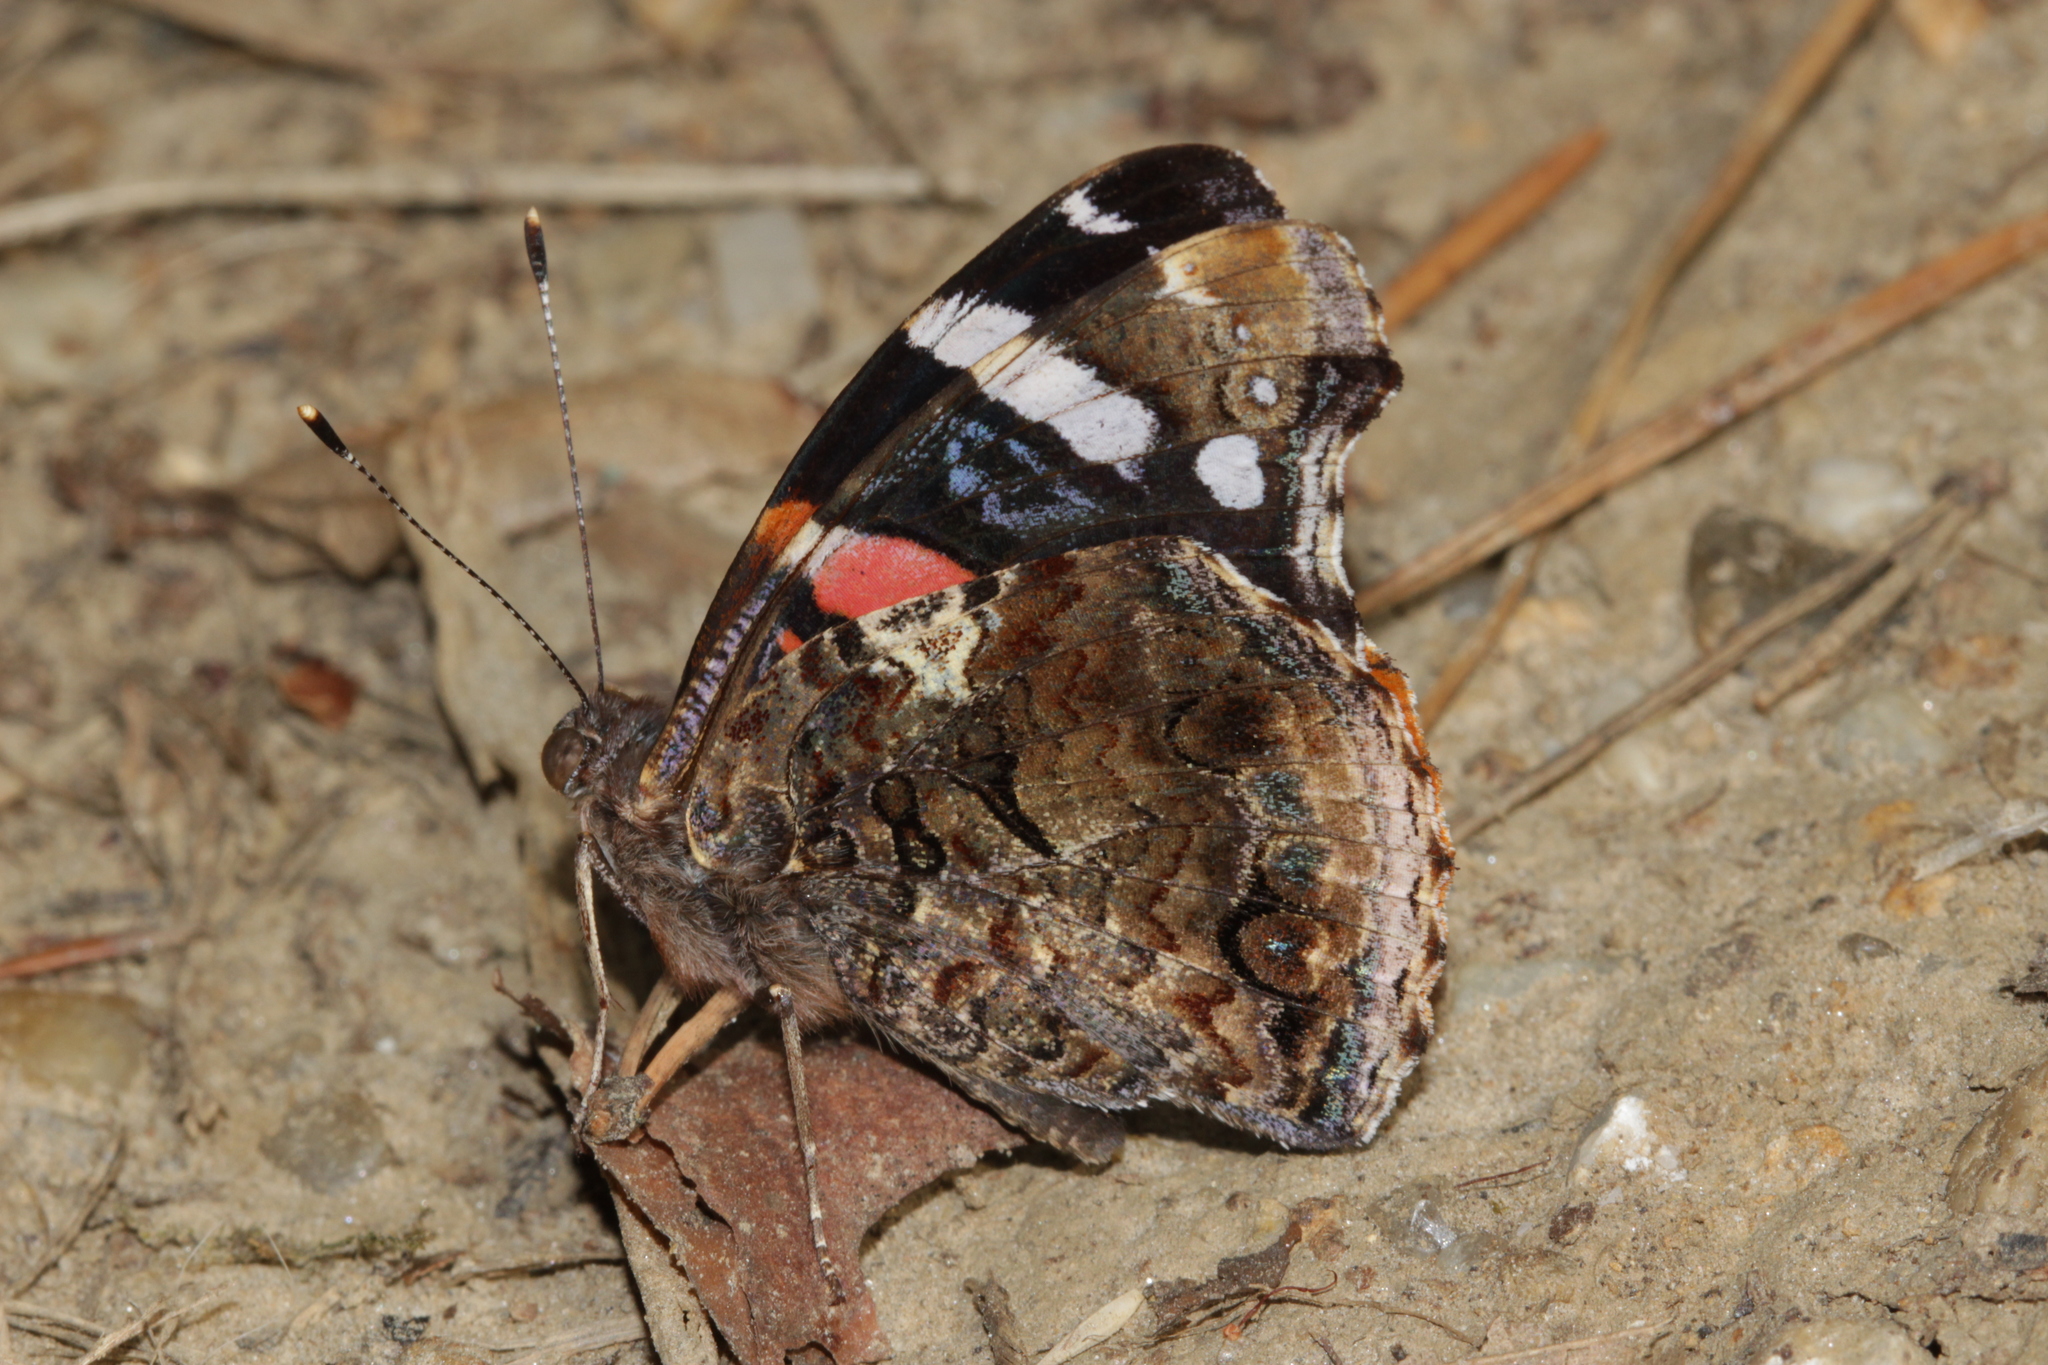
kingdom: Animalia
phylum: Arthropoda
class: Insecta
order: Lepidoptera
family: Nymphalidae
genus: Vanessa
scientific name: Vanessa atalanta
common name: Red admiral
